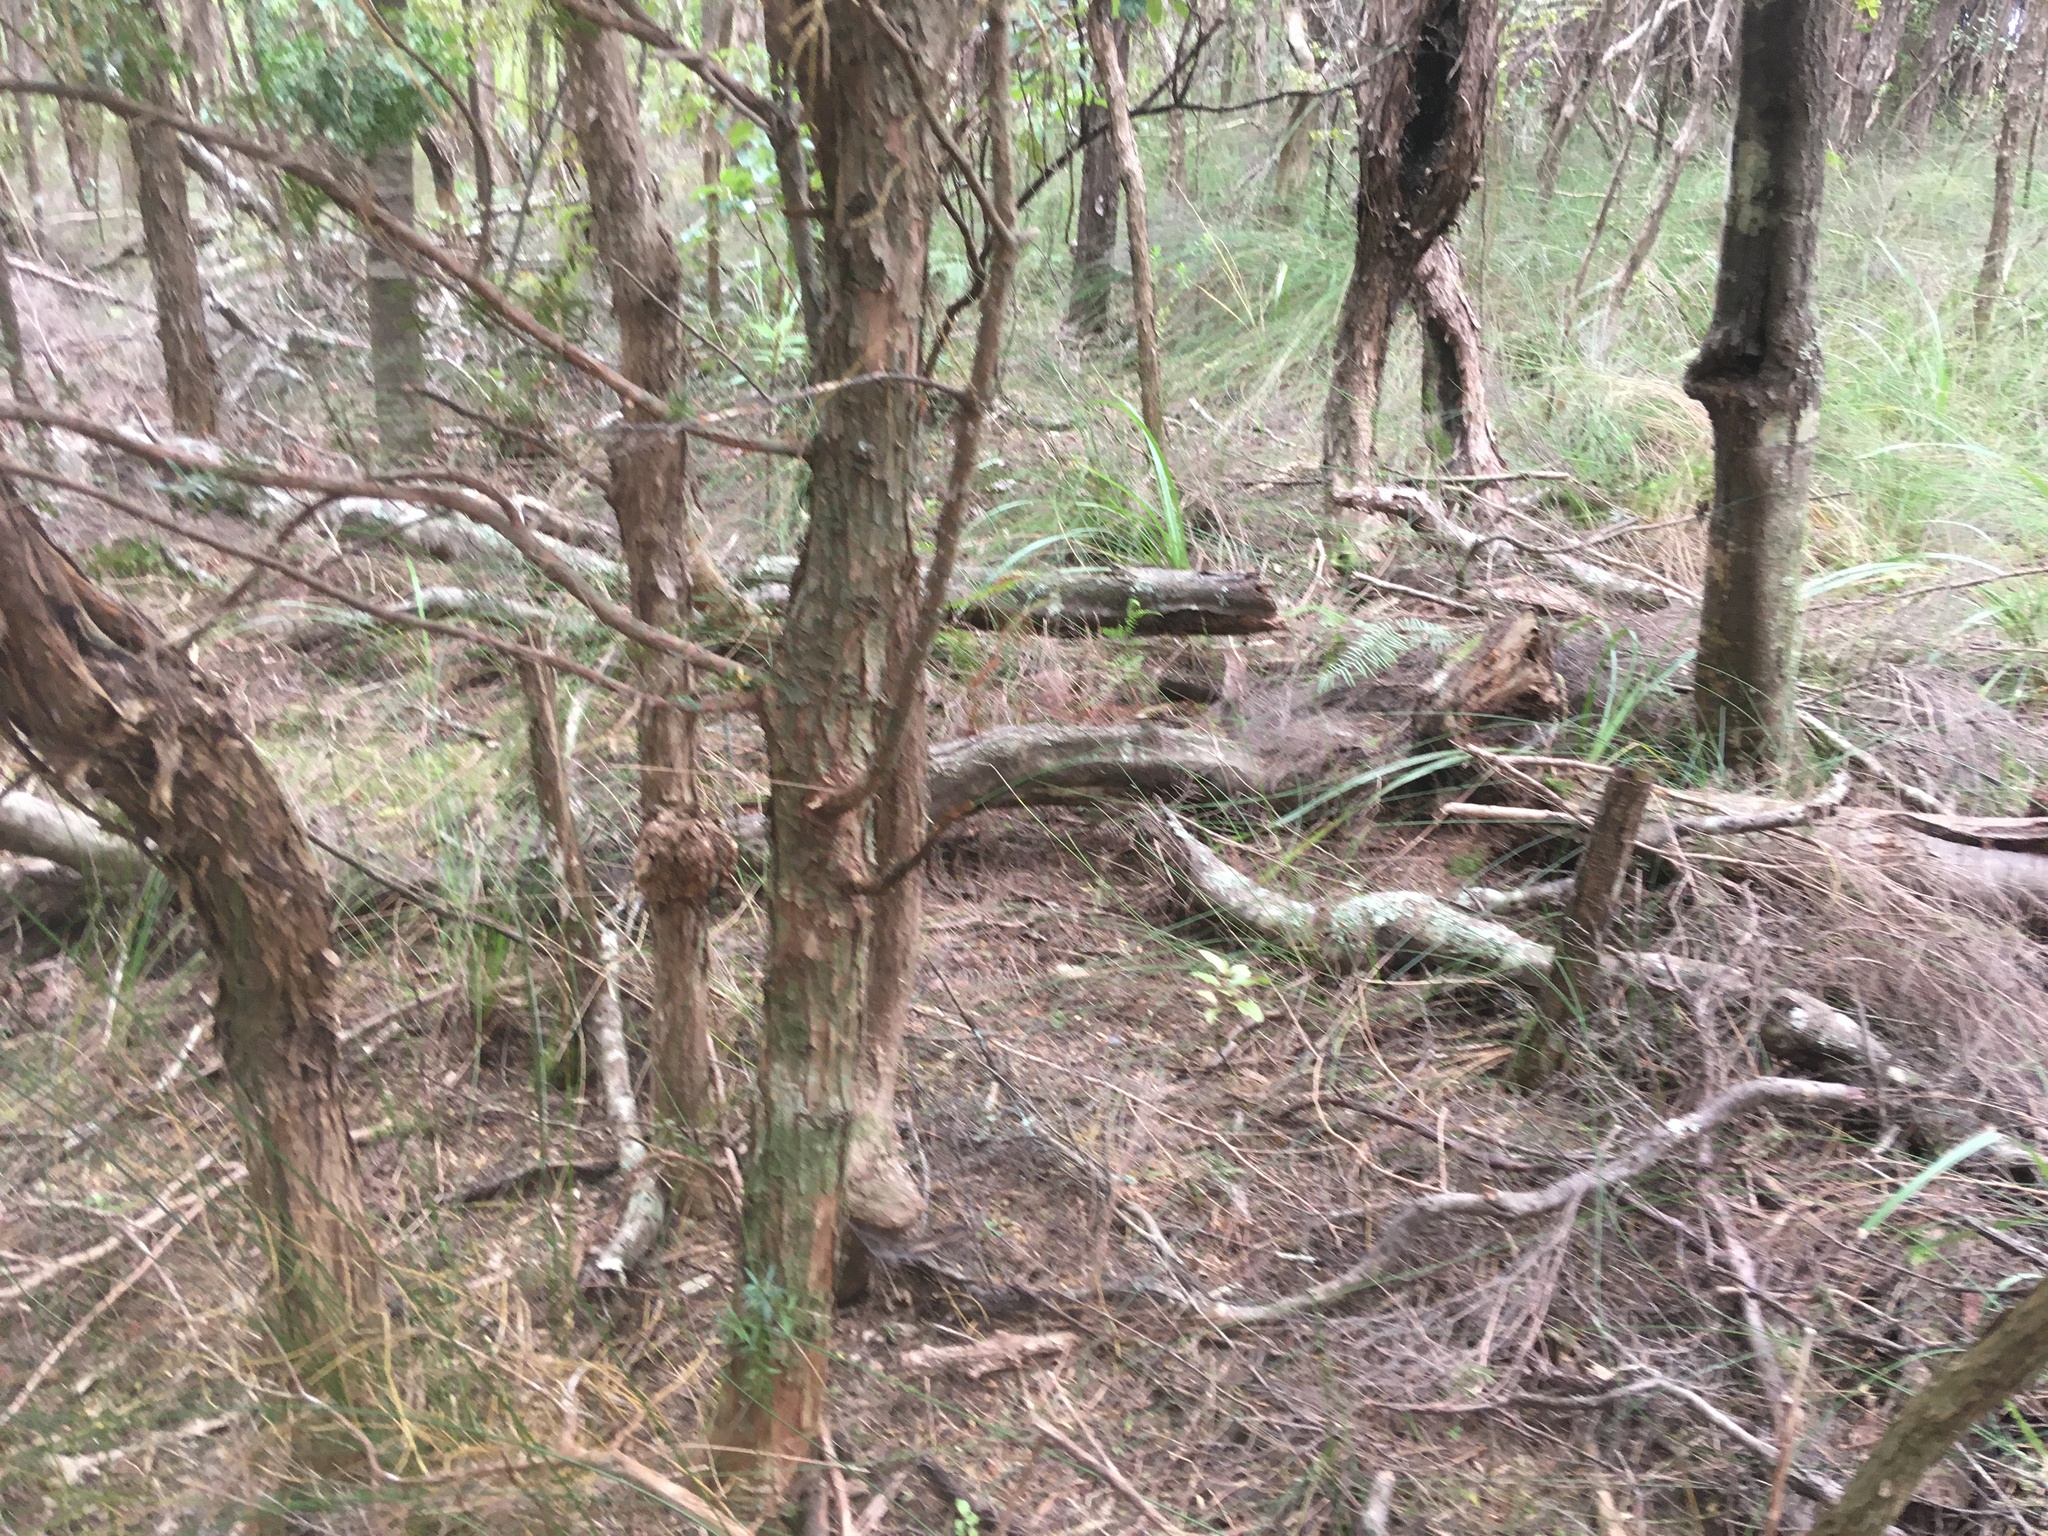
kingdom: Plantae
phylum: Tracheophyta
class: Magnoliopsida
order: Proteales
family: Proteaceae
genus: Hakea
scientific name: Hakea sericea
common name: Needle bush
